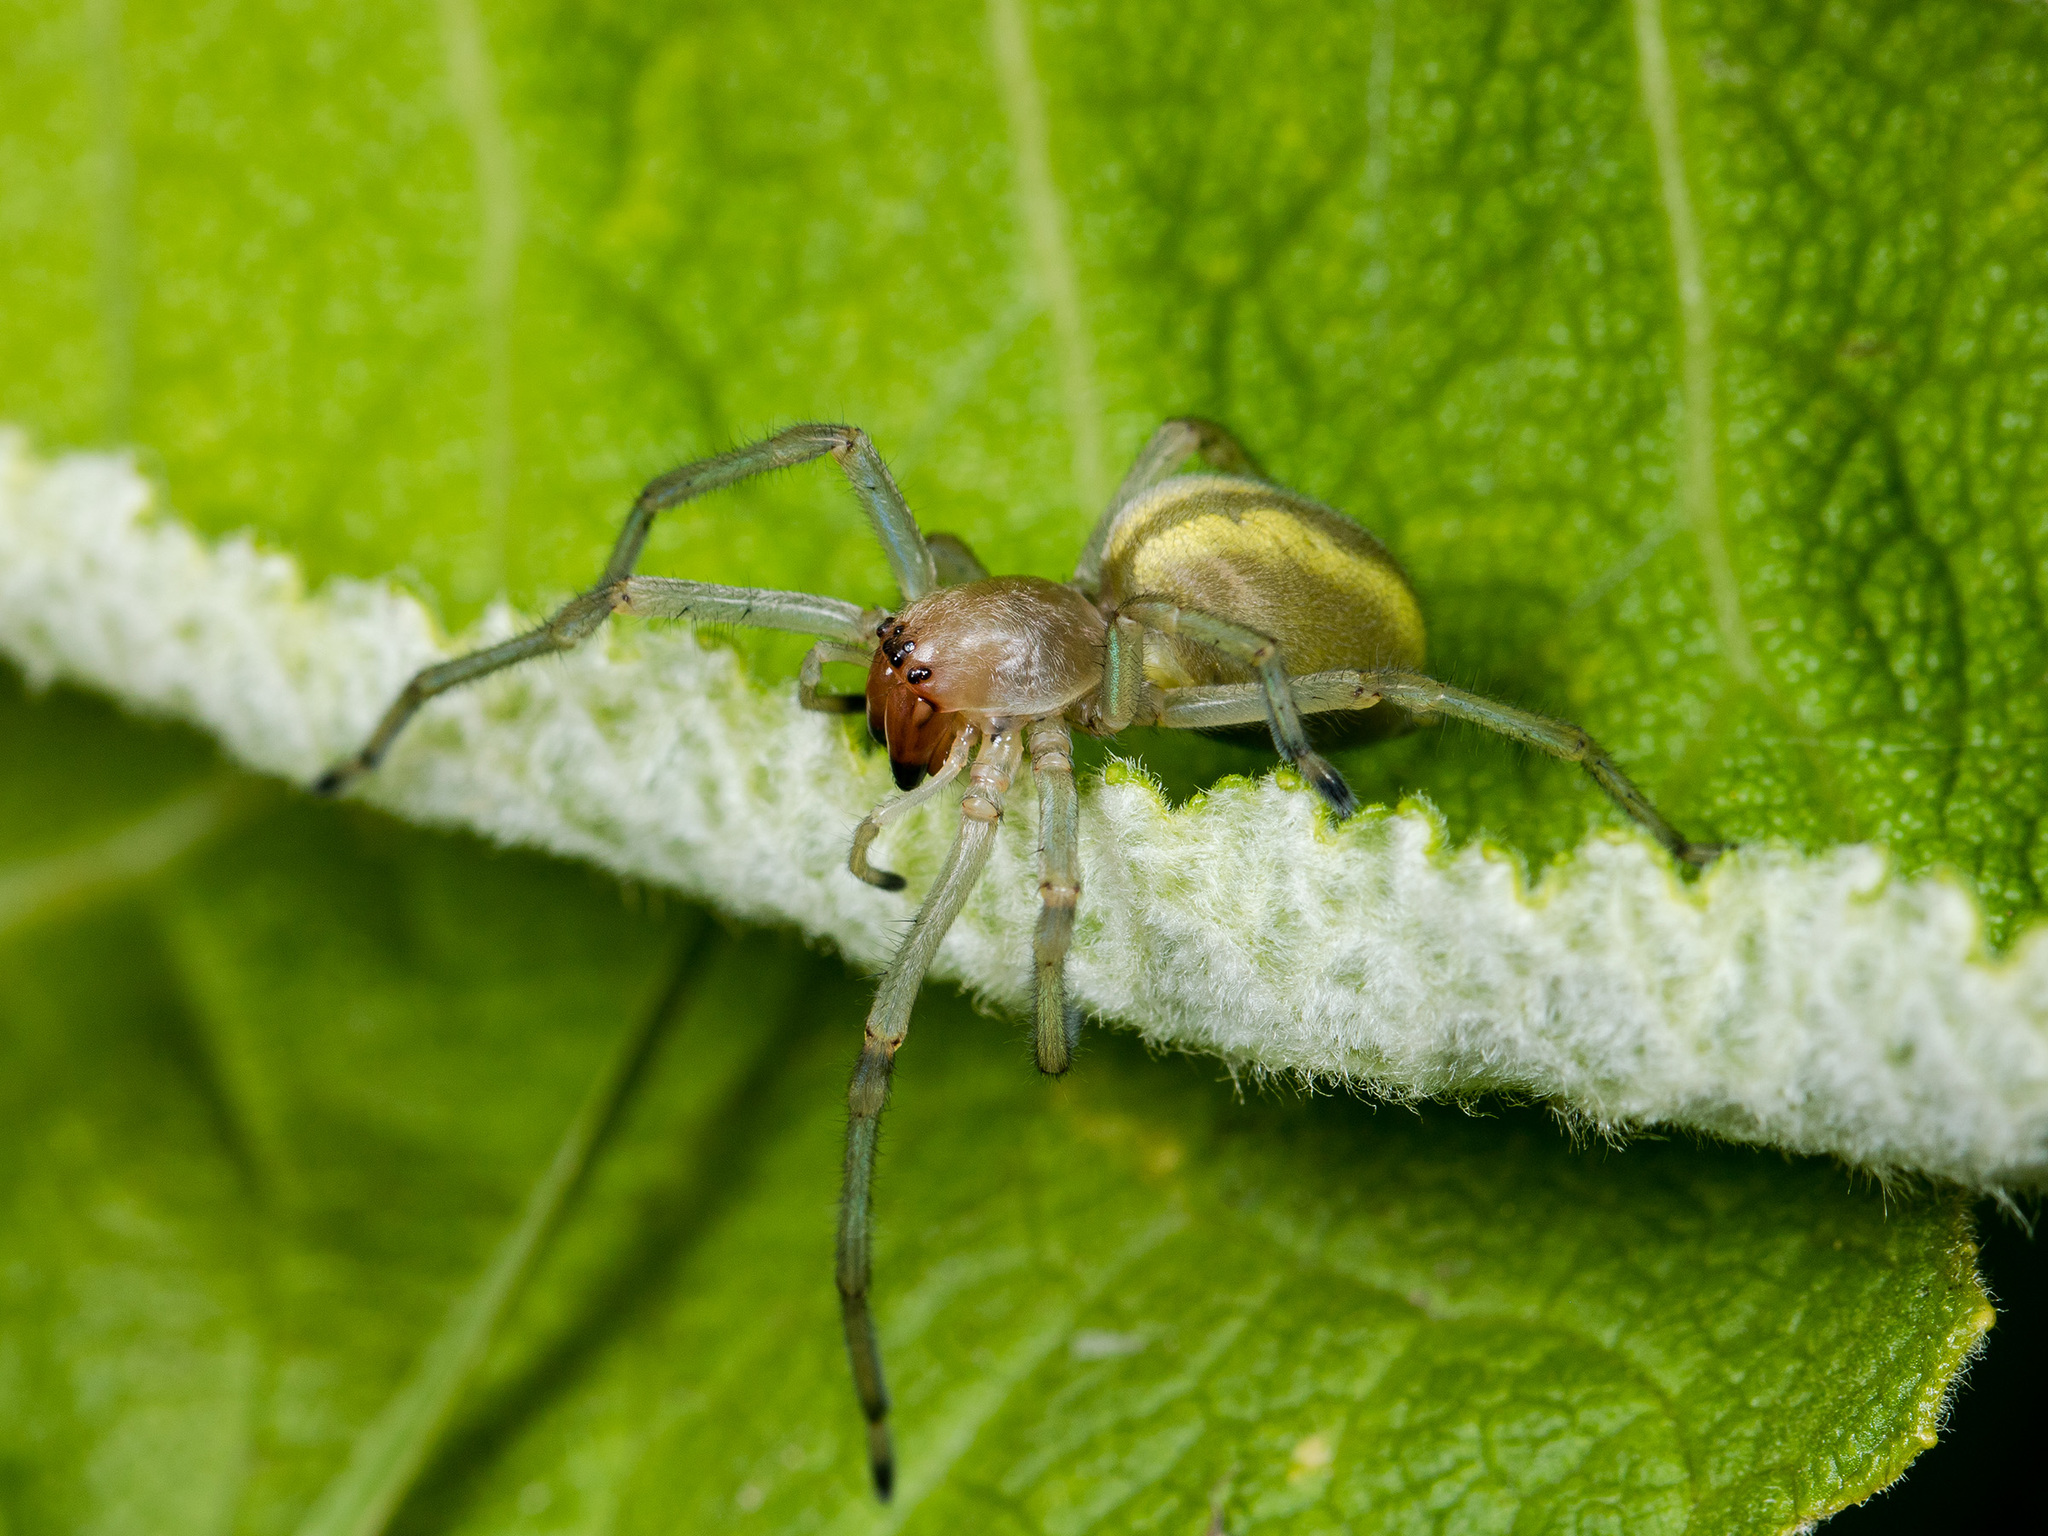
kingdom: Animalia
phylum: Arthropoda
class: Arachnida
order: Araneae
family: Cheiracanthiidae
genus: Cheiracanthium
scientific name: Cheiracanthium punctorium
